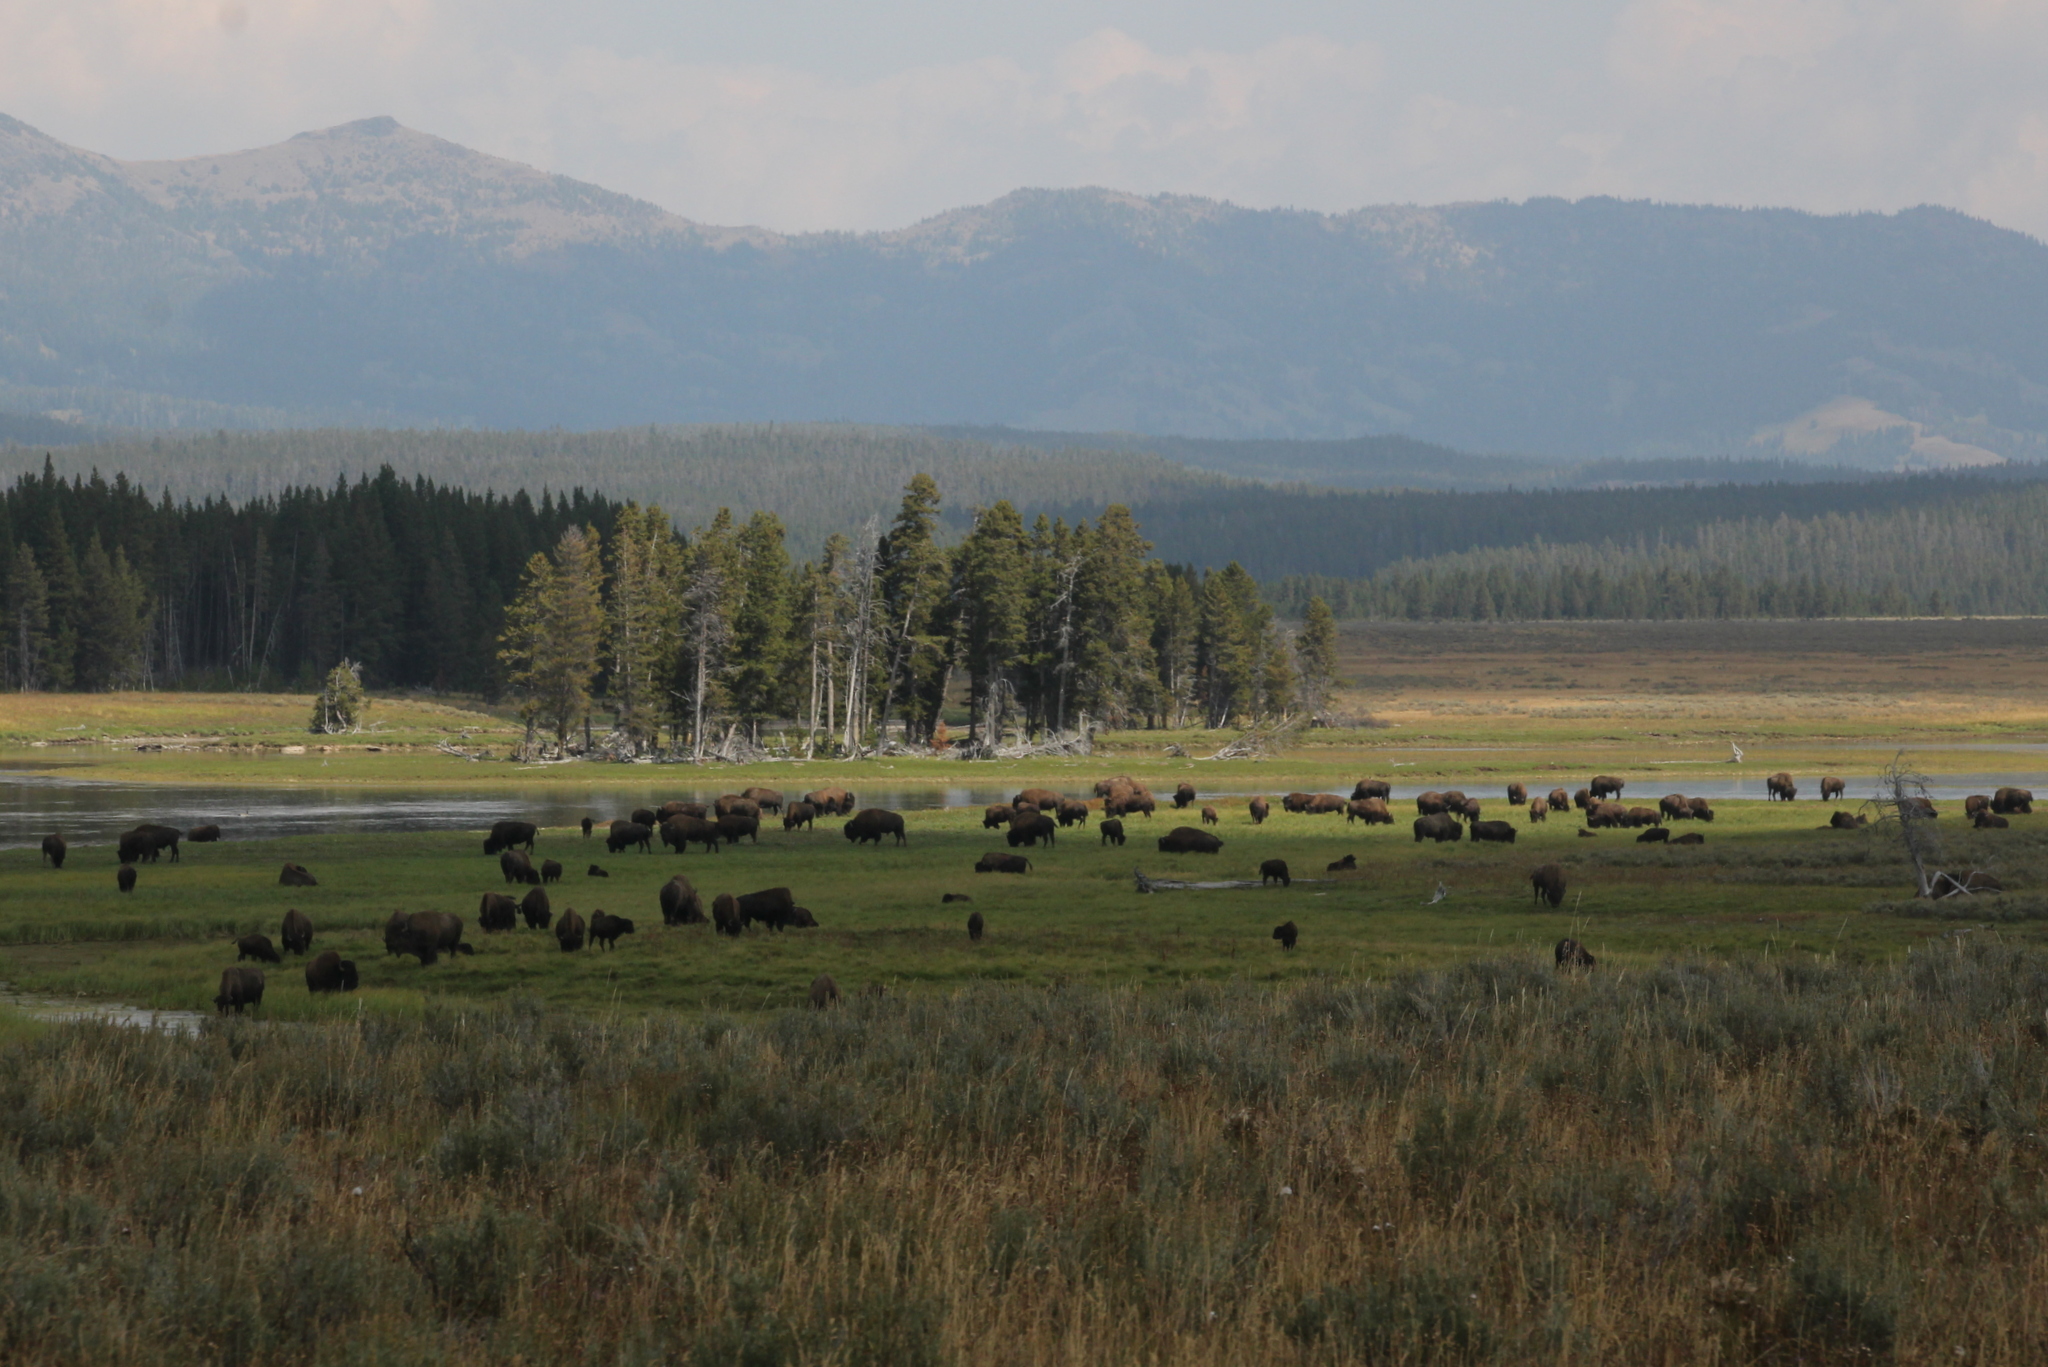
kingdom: Animalia
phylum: Chordata
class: Mammalia
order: Artiodactyla
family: Bovidae
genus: Bison
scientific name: Bison bison
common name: American bison
